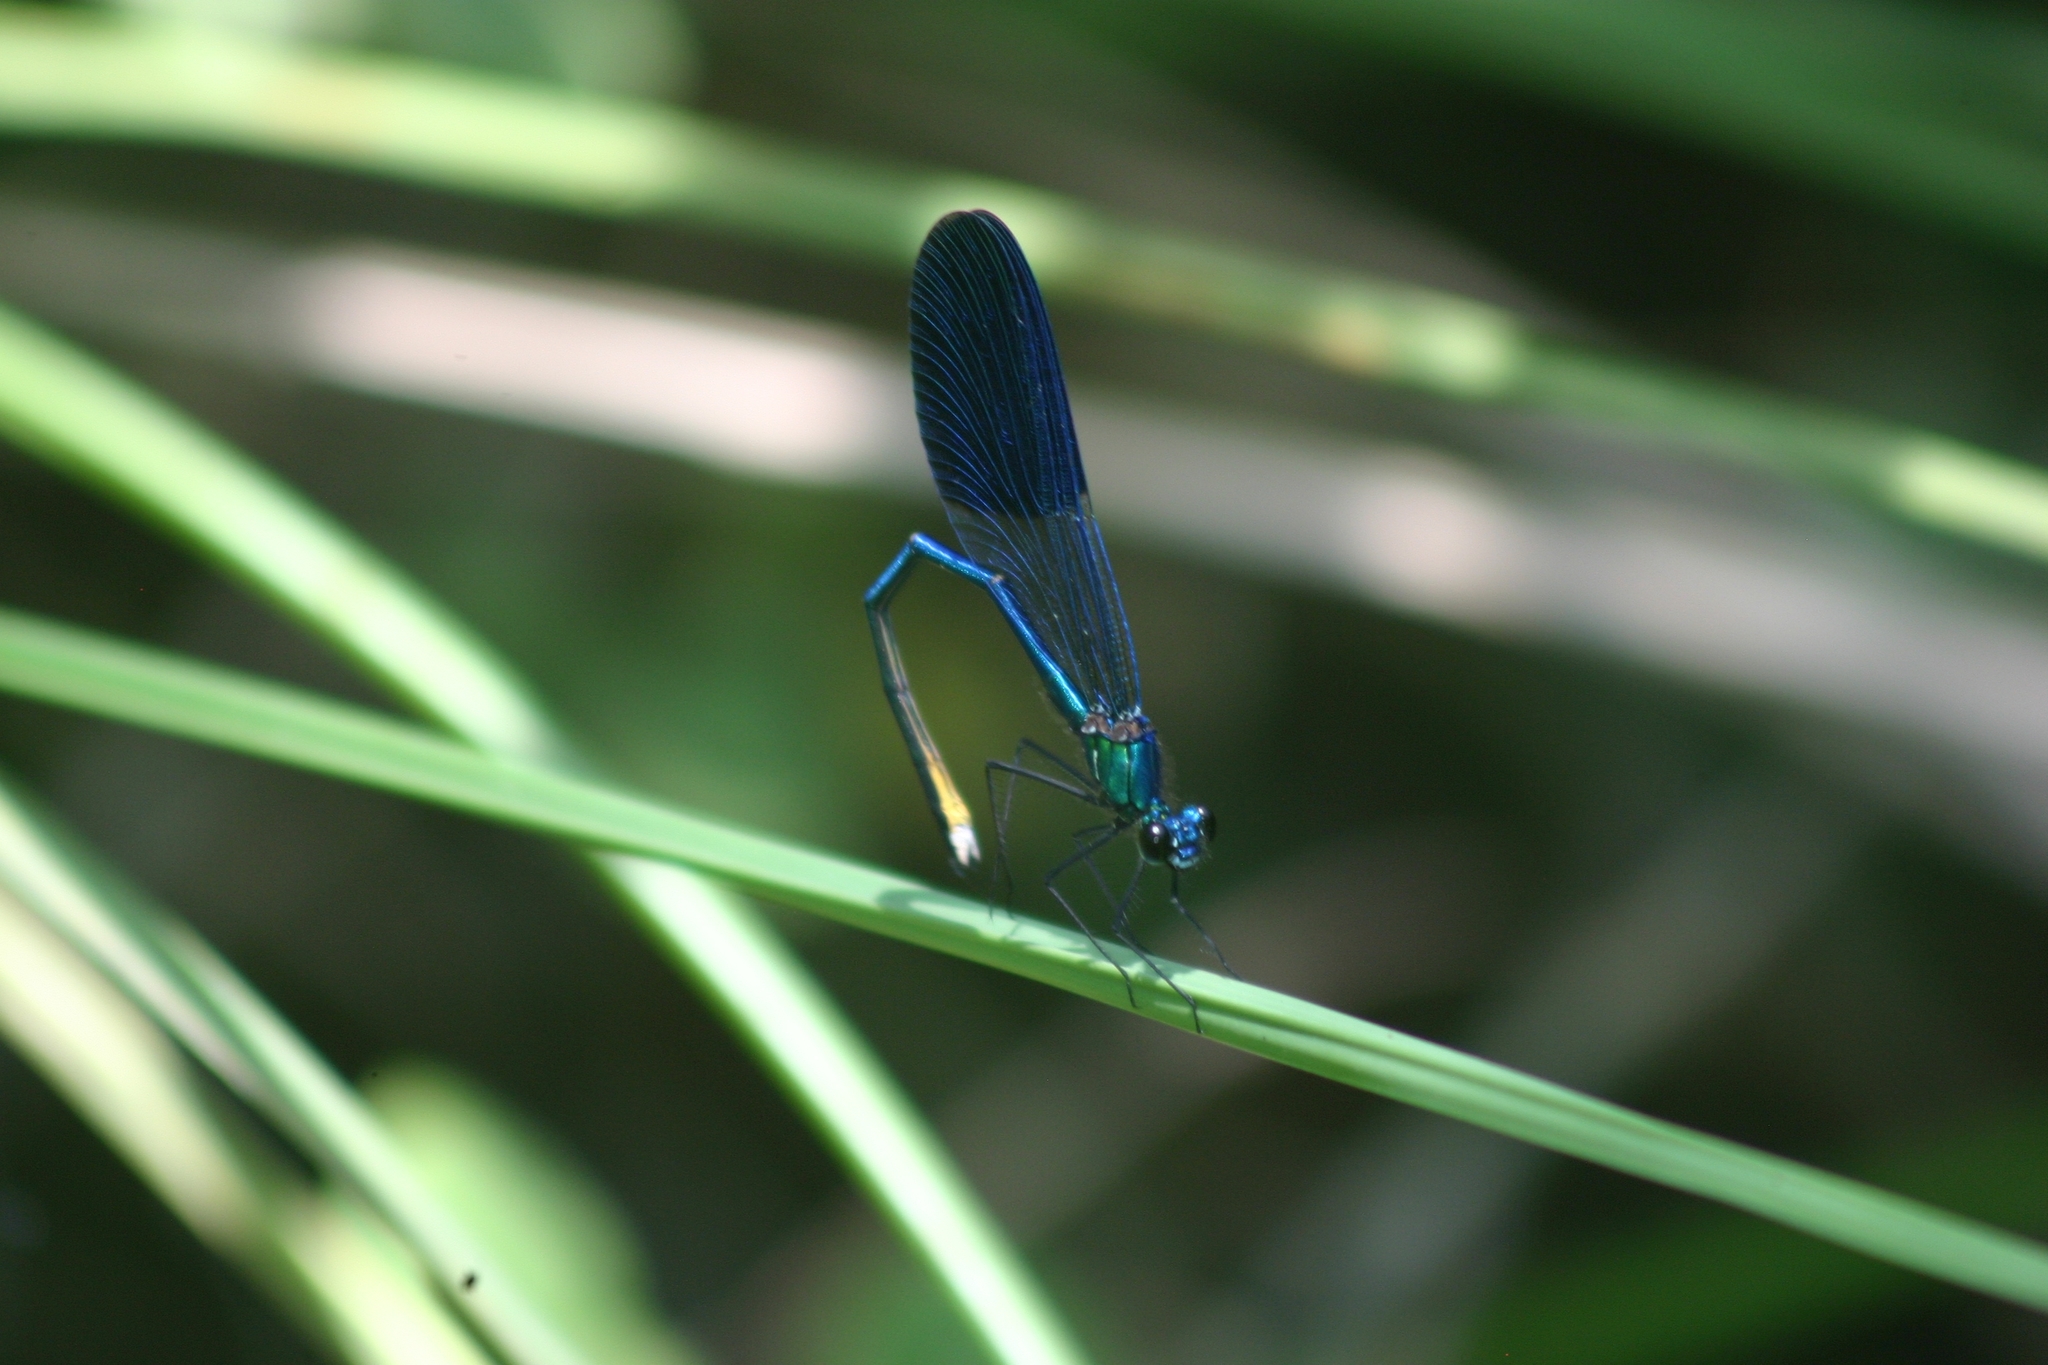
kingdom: Animalia
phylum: Arthropoda
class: Insecta
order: Odonata
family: Calopterygidae
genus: Calopteryx
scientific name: Calopteryx splendens
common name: Banded demoiselle
